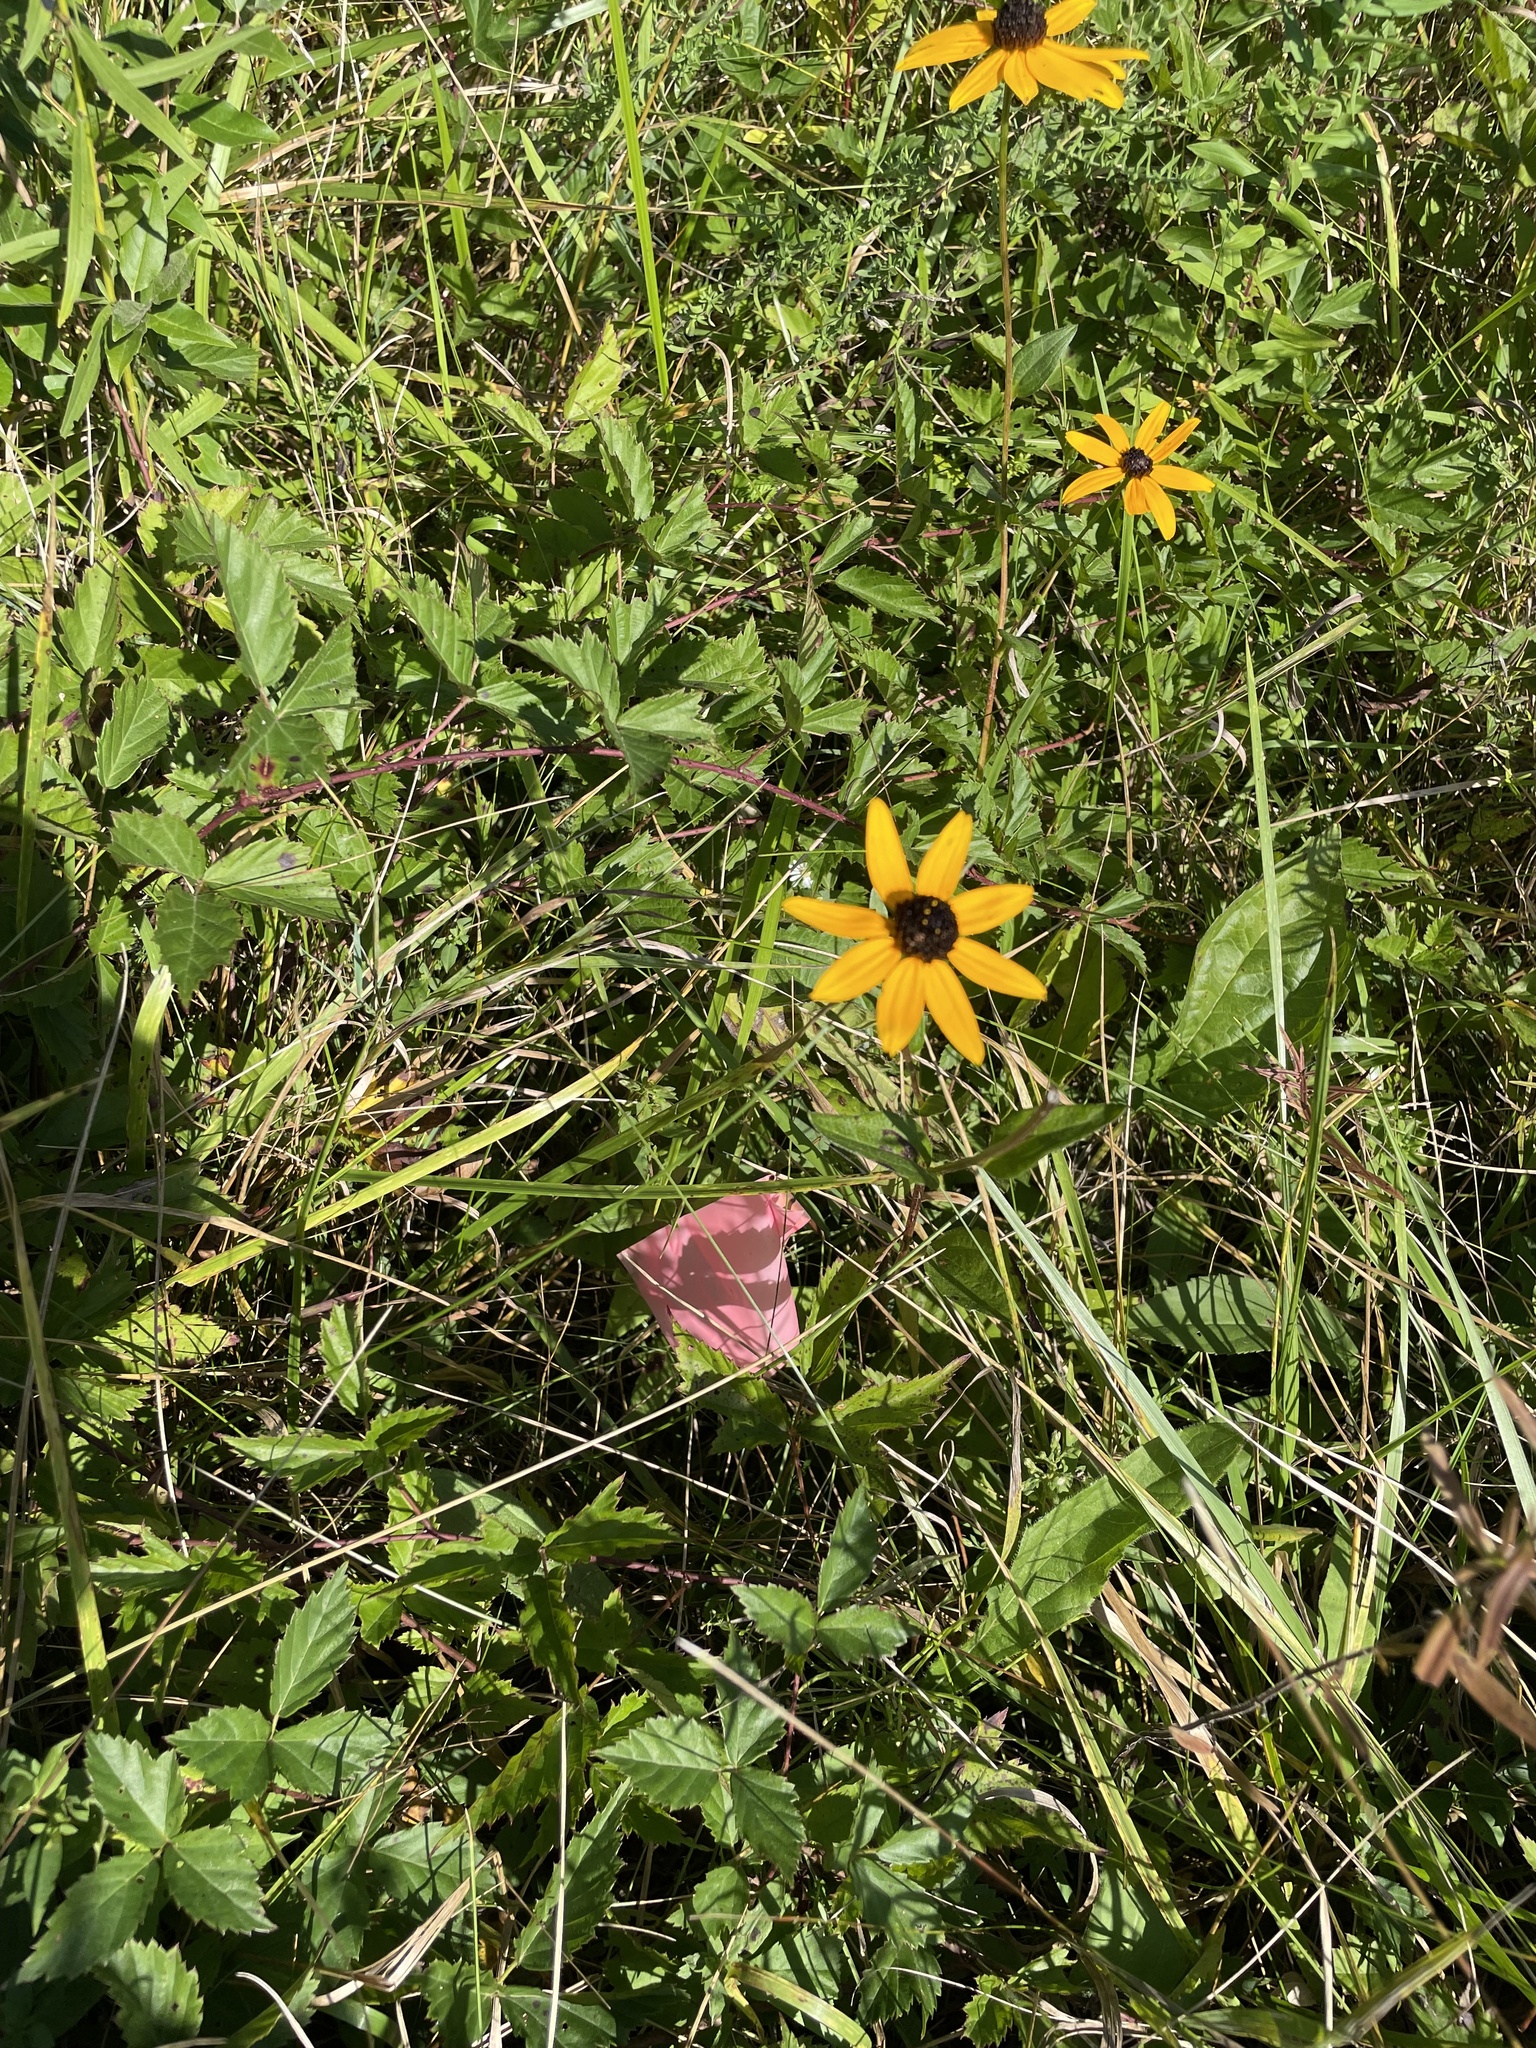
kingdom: Plantae
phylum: Tracheophyta
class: Magnoliopsida
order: Asterales
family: Asteraceae
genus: Rudbeckia
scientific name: Rudbeckia hirta
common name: Black-eyed-susan
